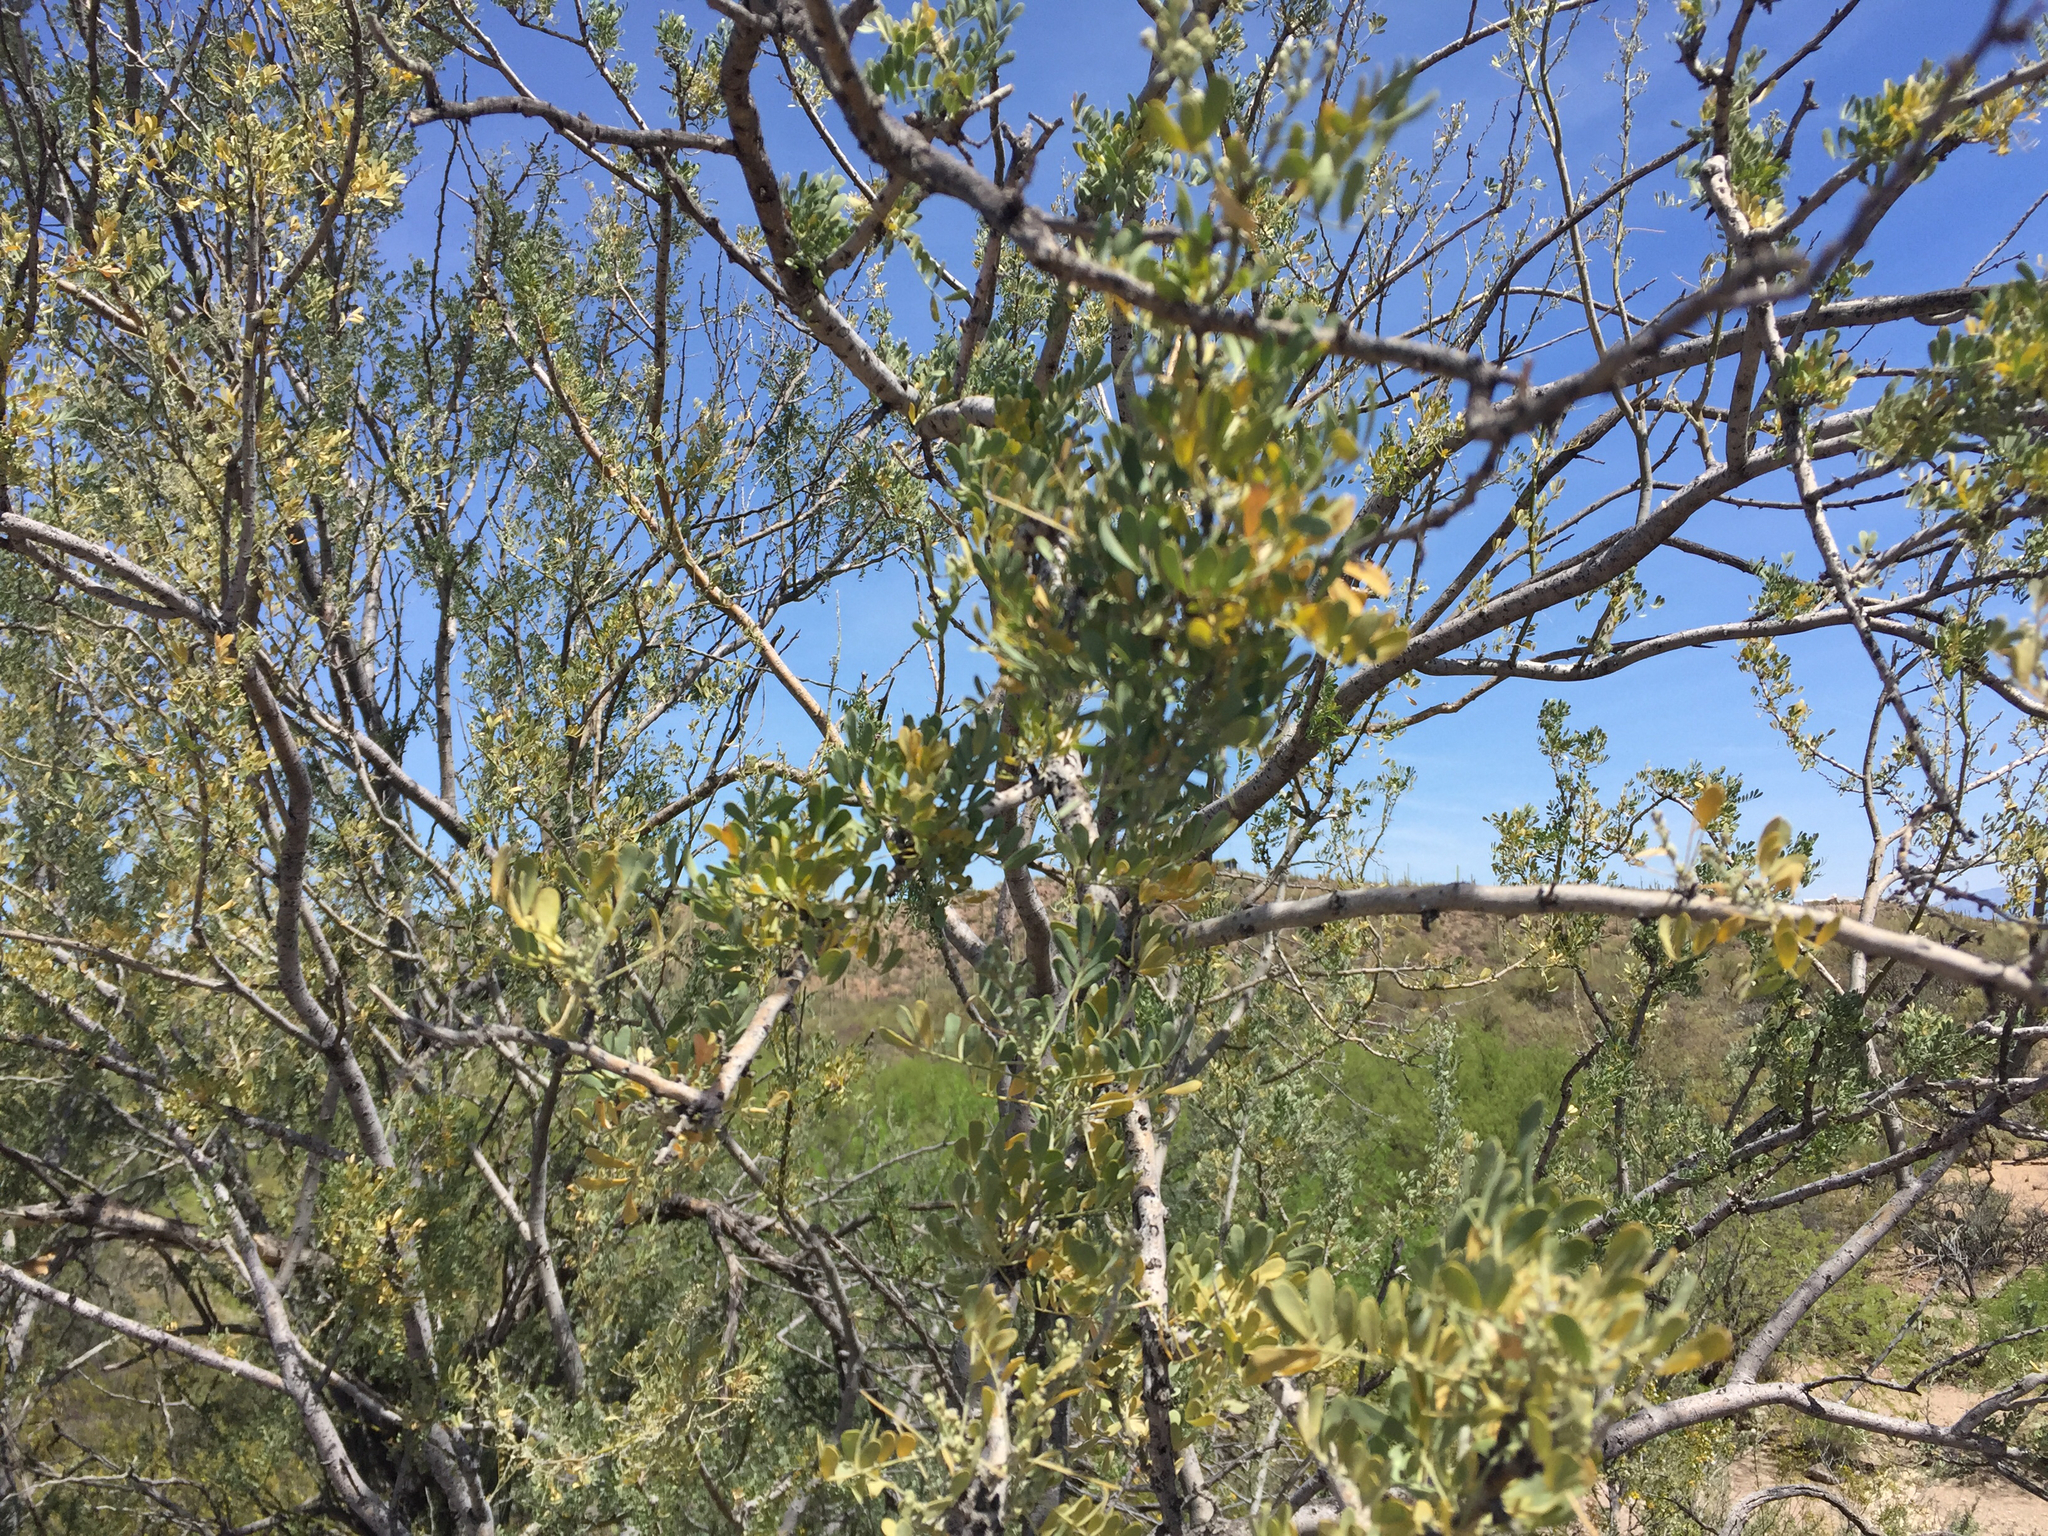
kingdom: Plantae
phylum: Tracheophyta
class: Magnoliopsida
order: Fabales
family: Fabaceae
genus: Olneya
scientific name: Olneya tesota
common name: Desert ironwood
